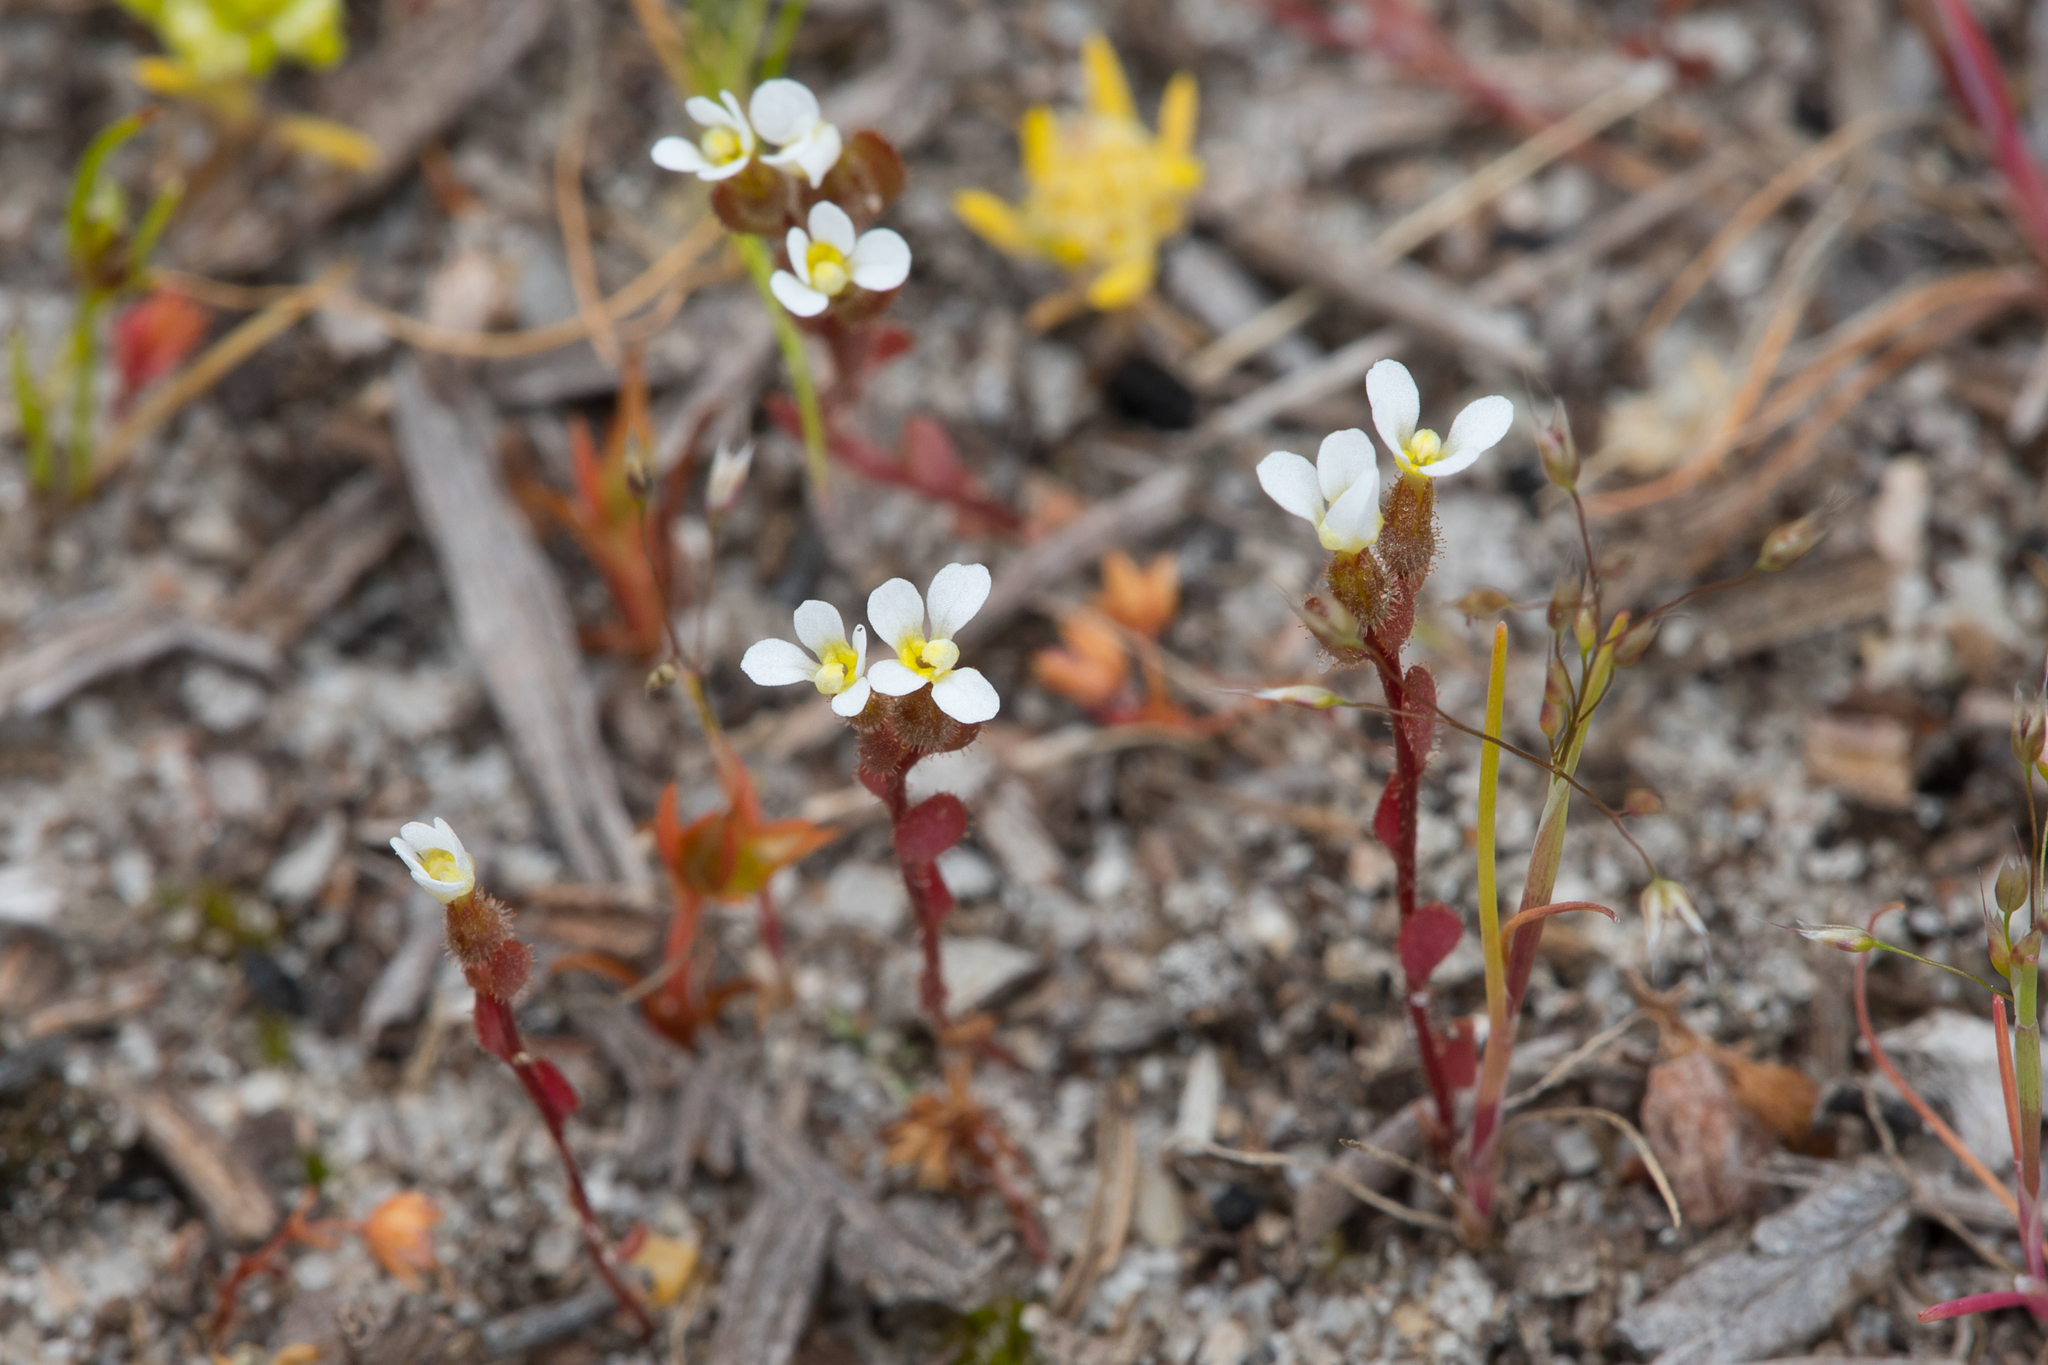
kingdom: Plantae
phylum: Tracheophyta
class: Magnoliopsida
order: Asterales
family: Stylidiaceae
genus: Levenhookia
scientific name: Levenhookia dubia
